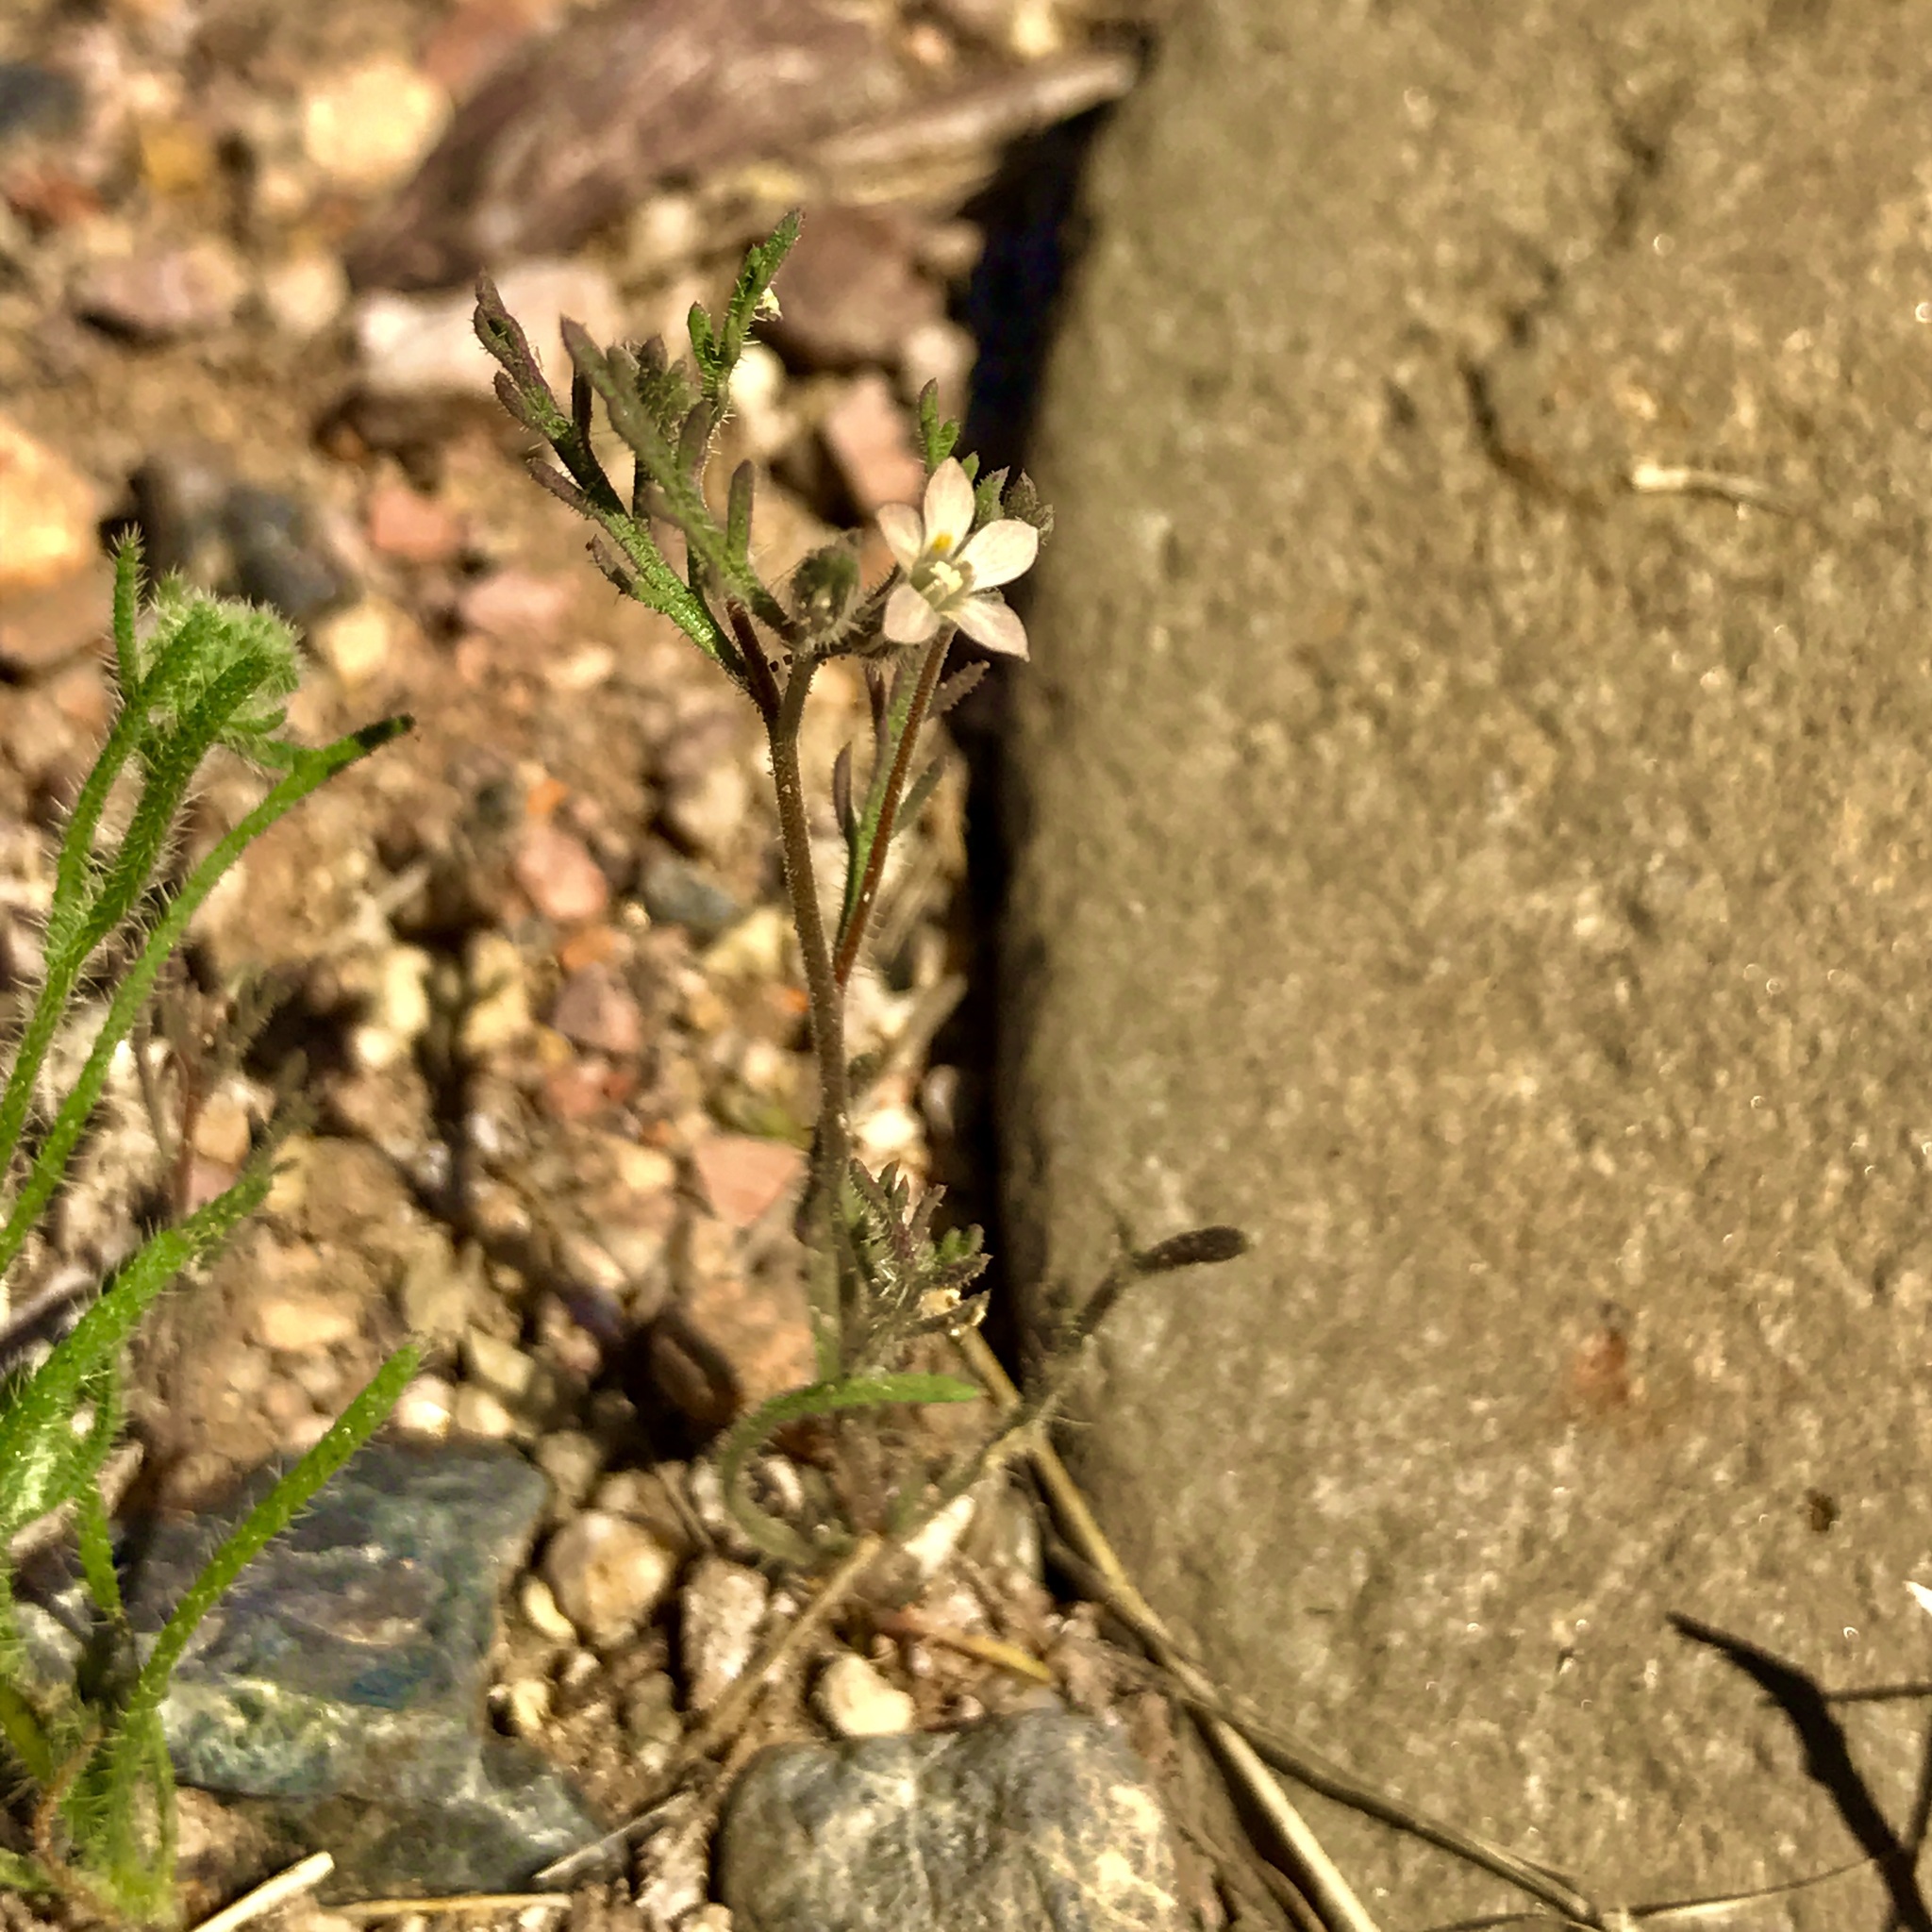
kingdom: Plantae
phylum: Tracheophyta
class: Magnoliopsida
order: Ericales
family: Polemoniaceae
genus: Dayia
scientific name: Dayia sonorae
